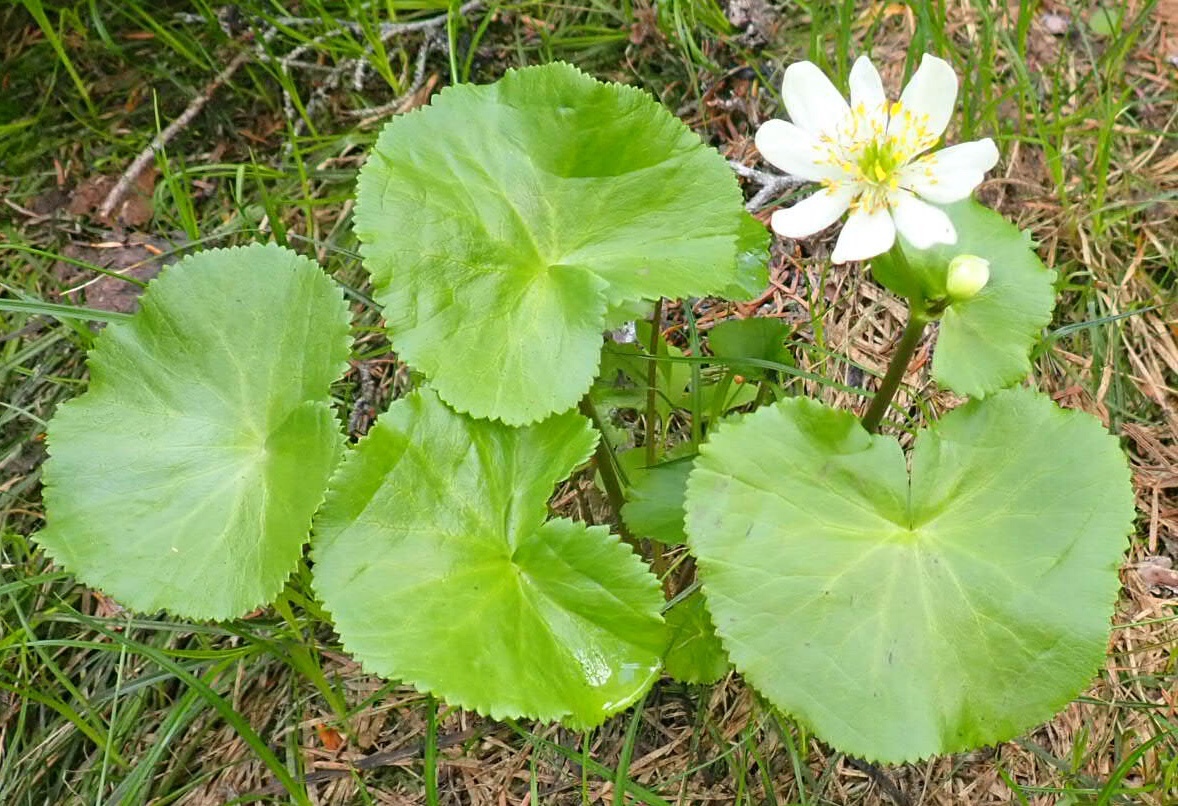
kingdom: Plantae
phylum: Tracheophyta
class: Magnoliopsida
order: Ranunculales
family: Ranunculaceae
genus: Caltha
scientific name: Caltha leptosepala
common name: Elkslip
